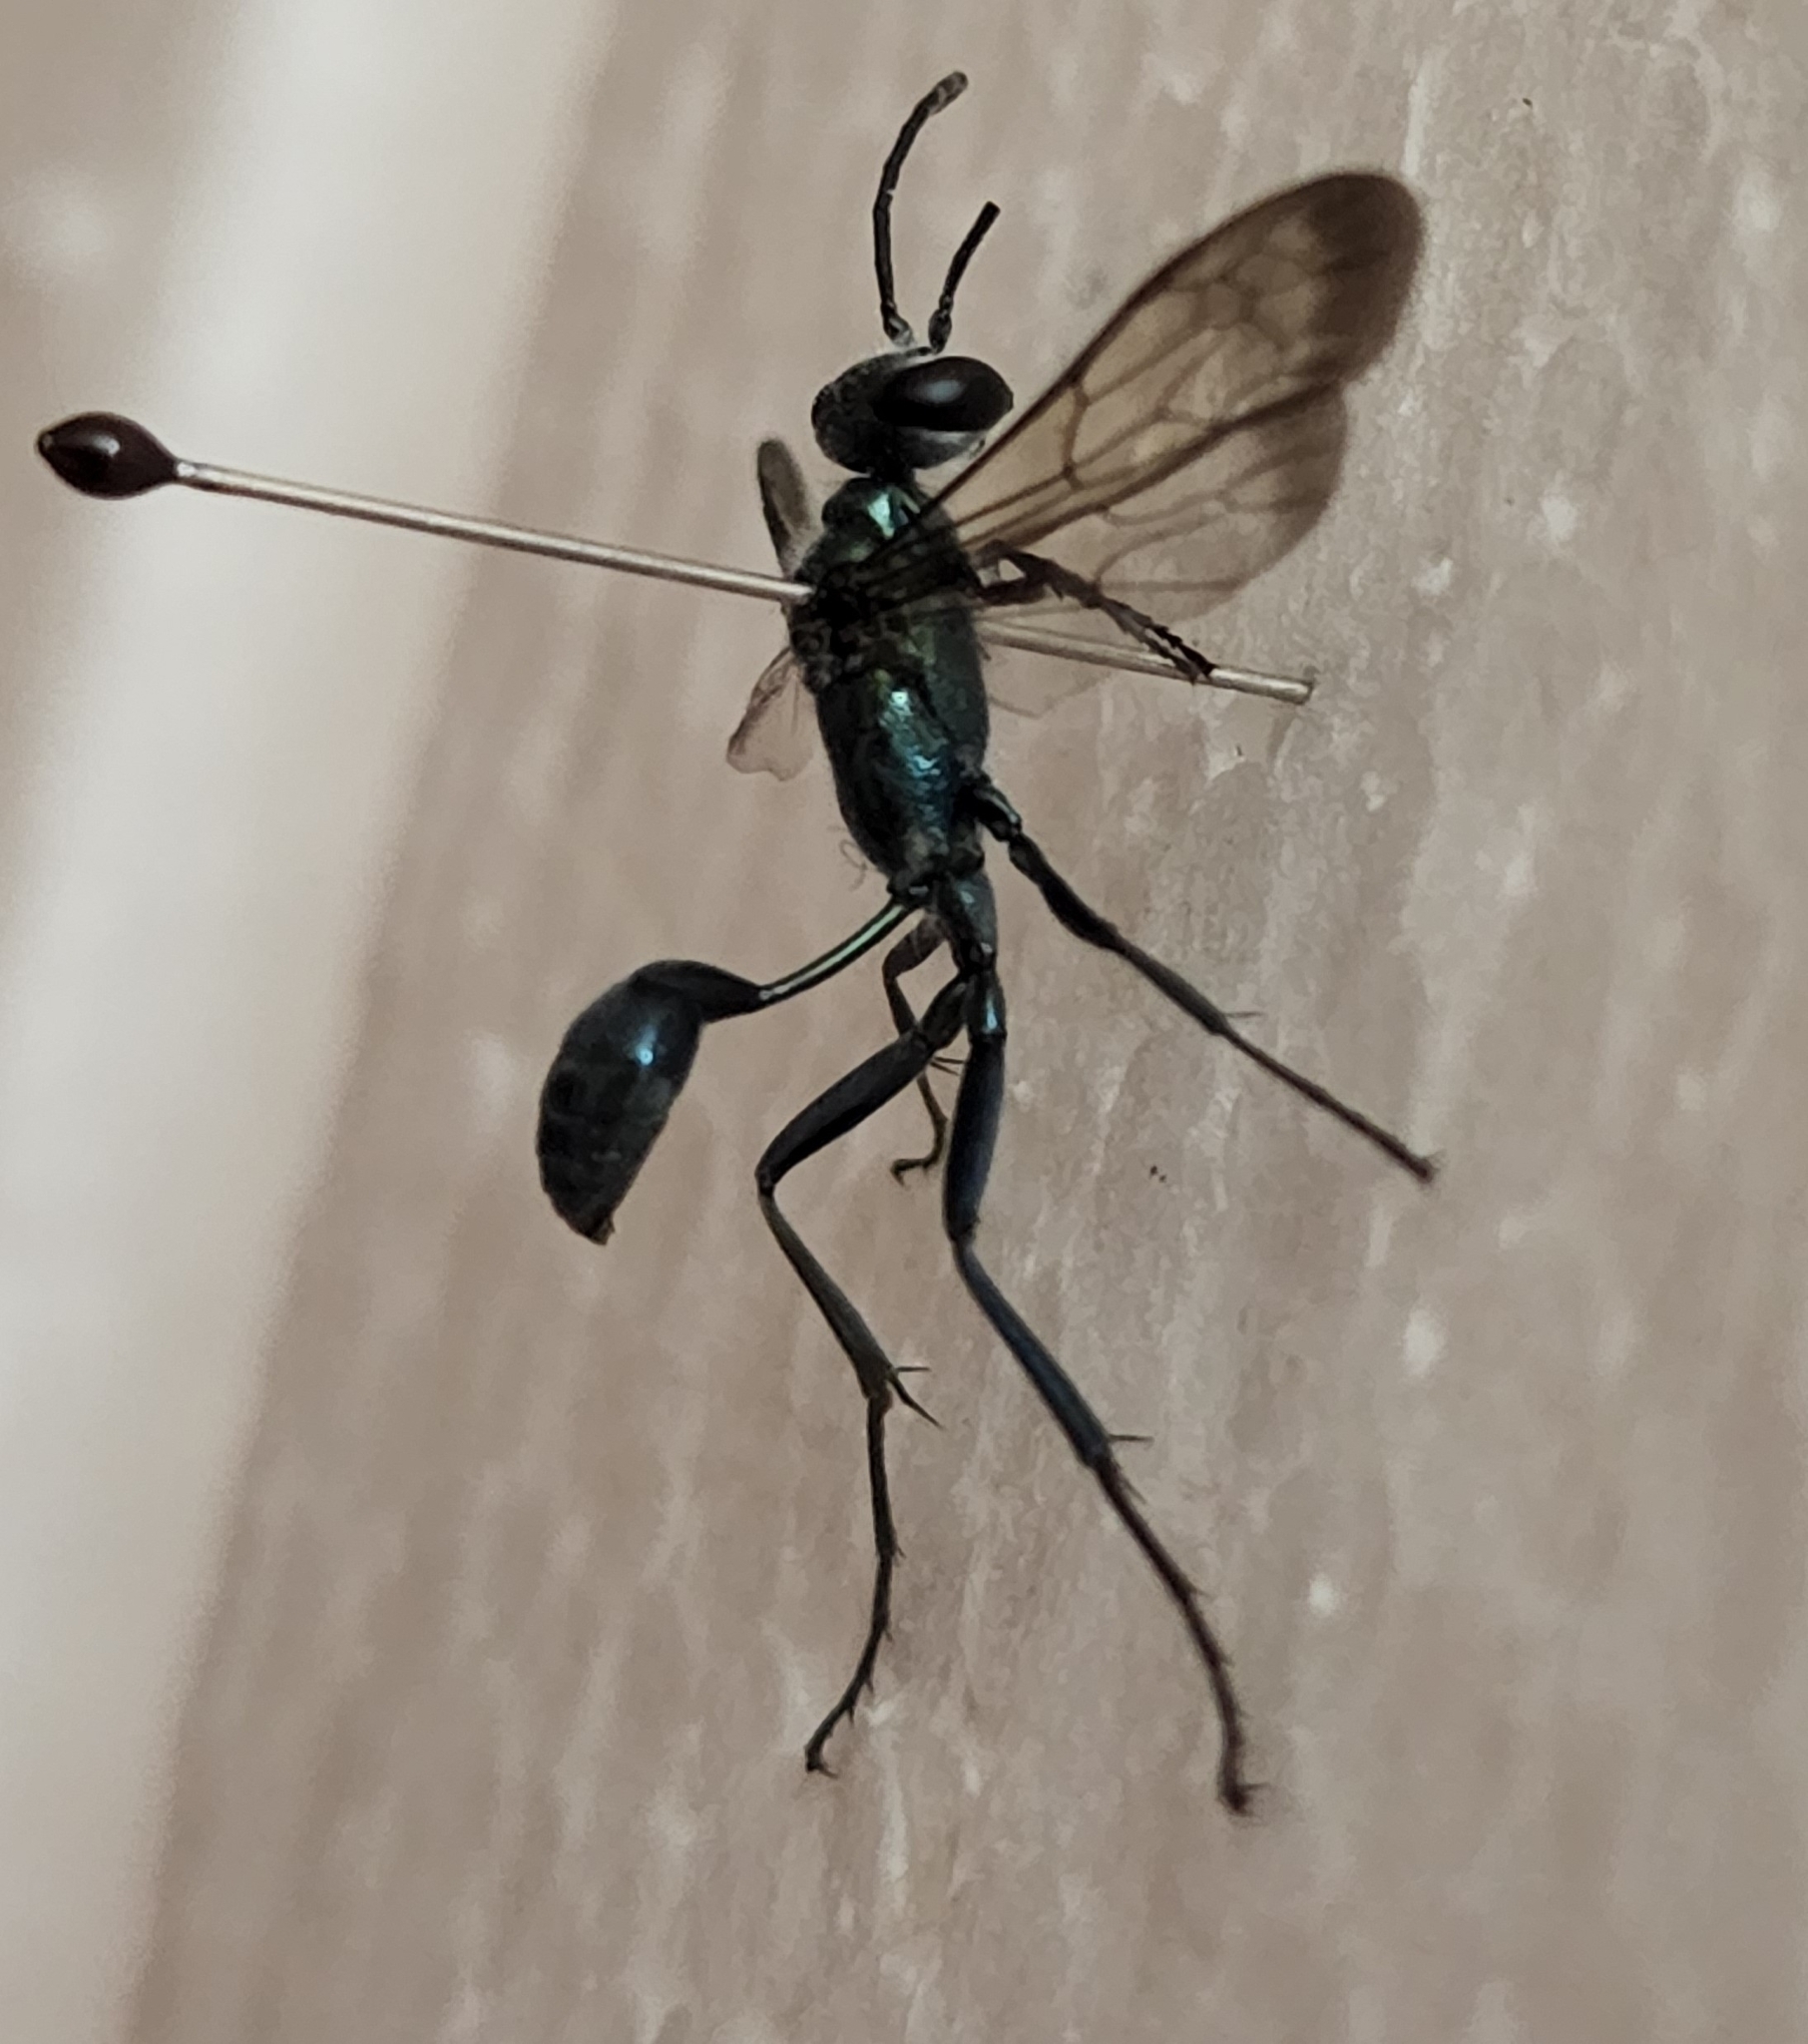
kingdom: Animalia
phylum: Arthropoda
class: Insecta
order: Hymenoptera
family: Sphecidae
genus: Chalybion
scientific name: Chalybion zimmermanni
